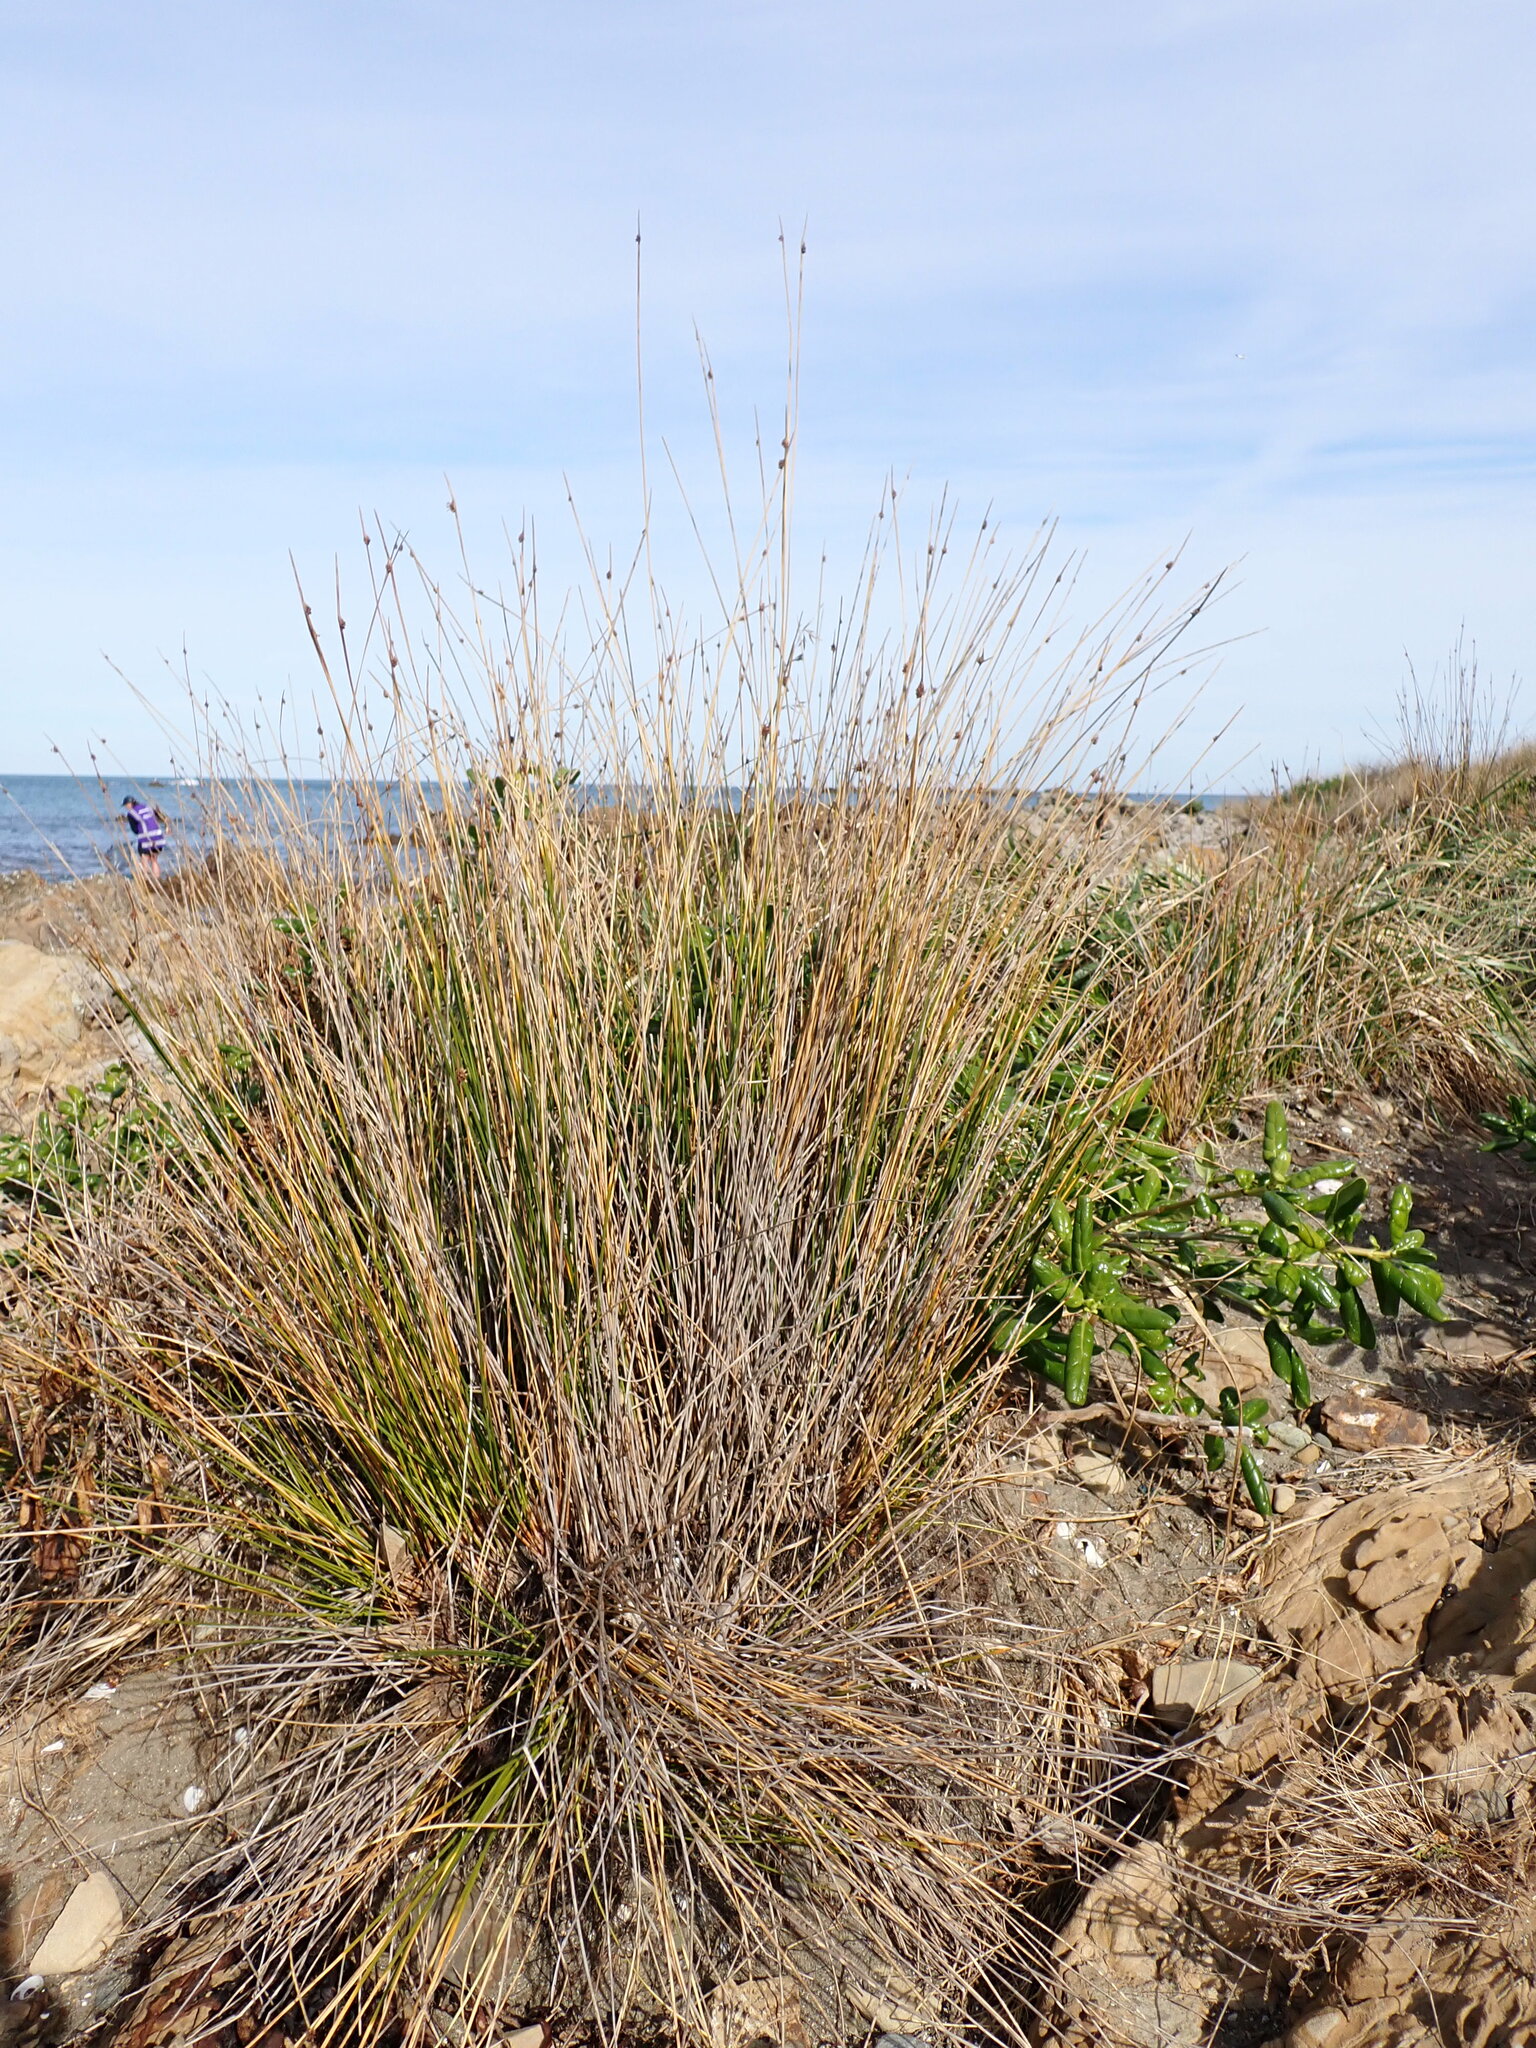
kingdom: Plantae
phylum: Tracheophyta
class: Liliopsida
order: Poales
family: Cyperaceae
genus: Ficinia
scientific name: Ficinia nodosa
